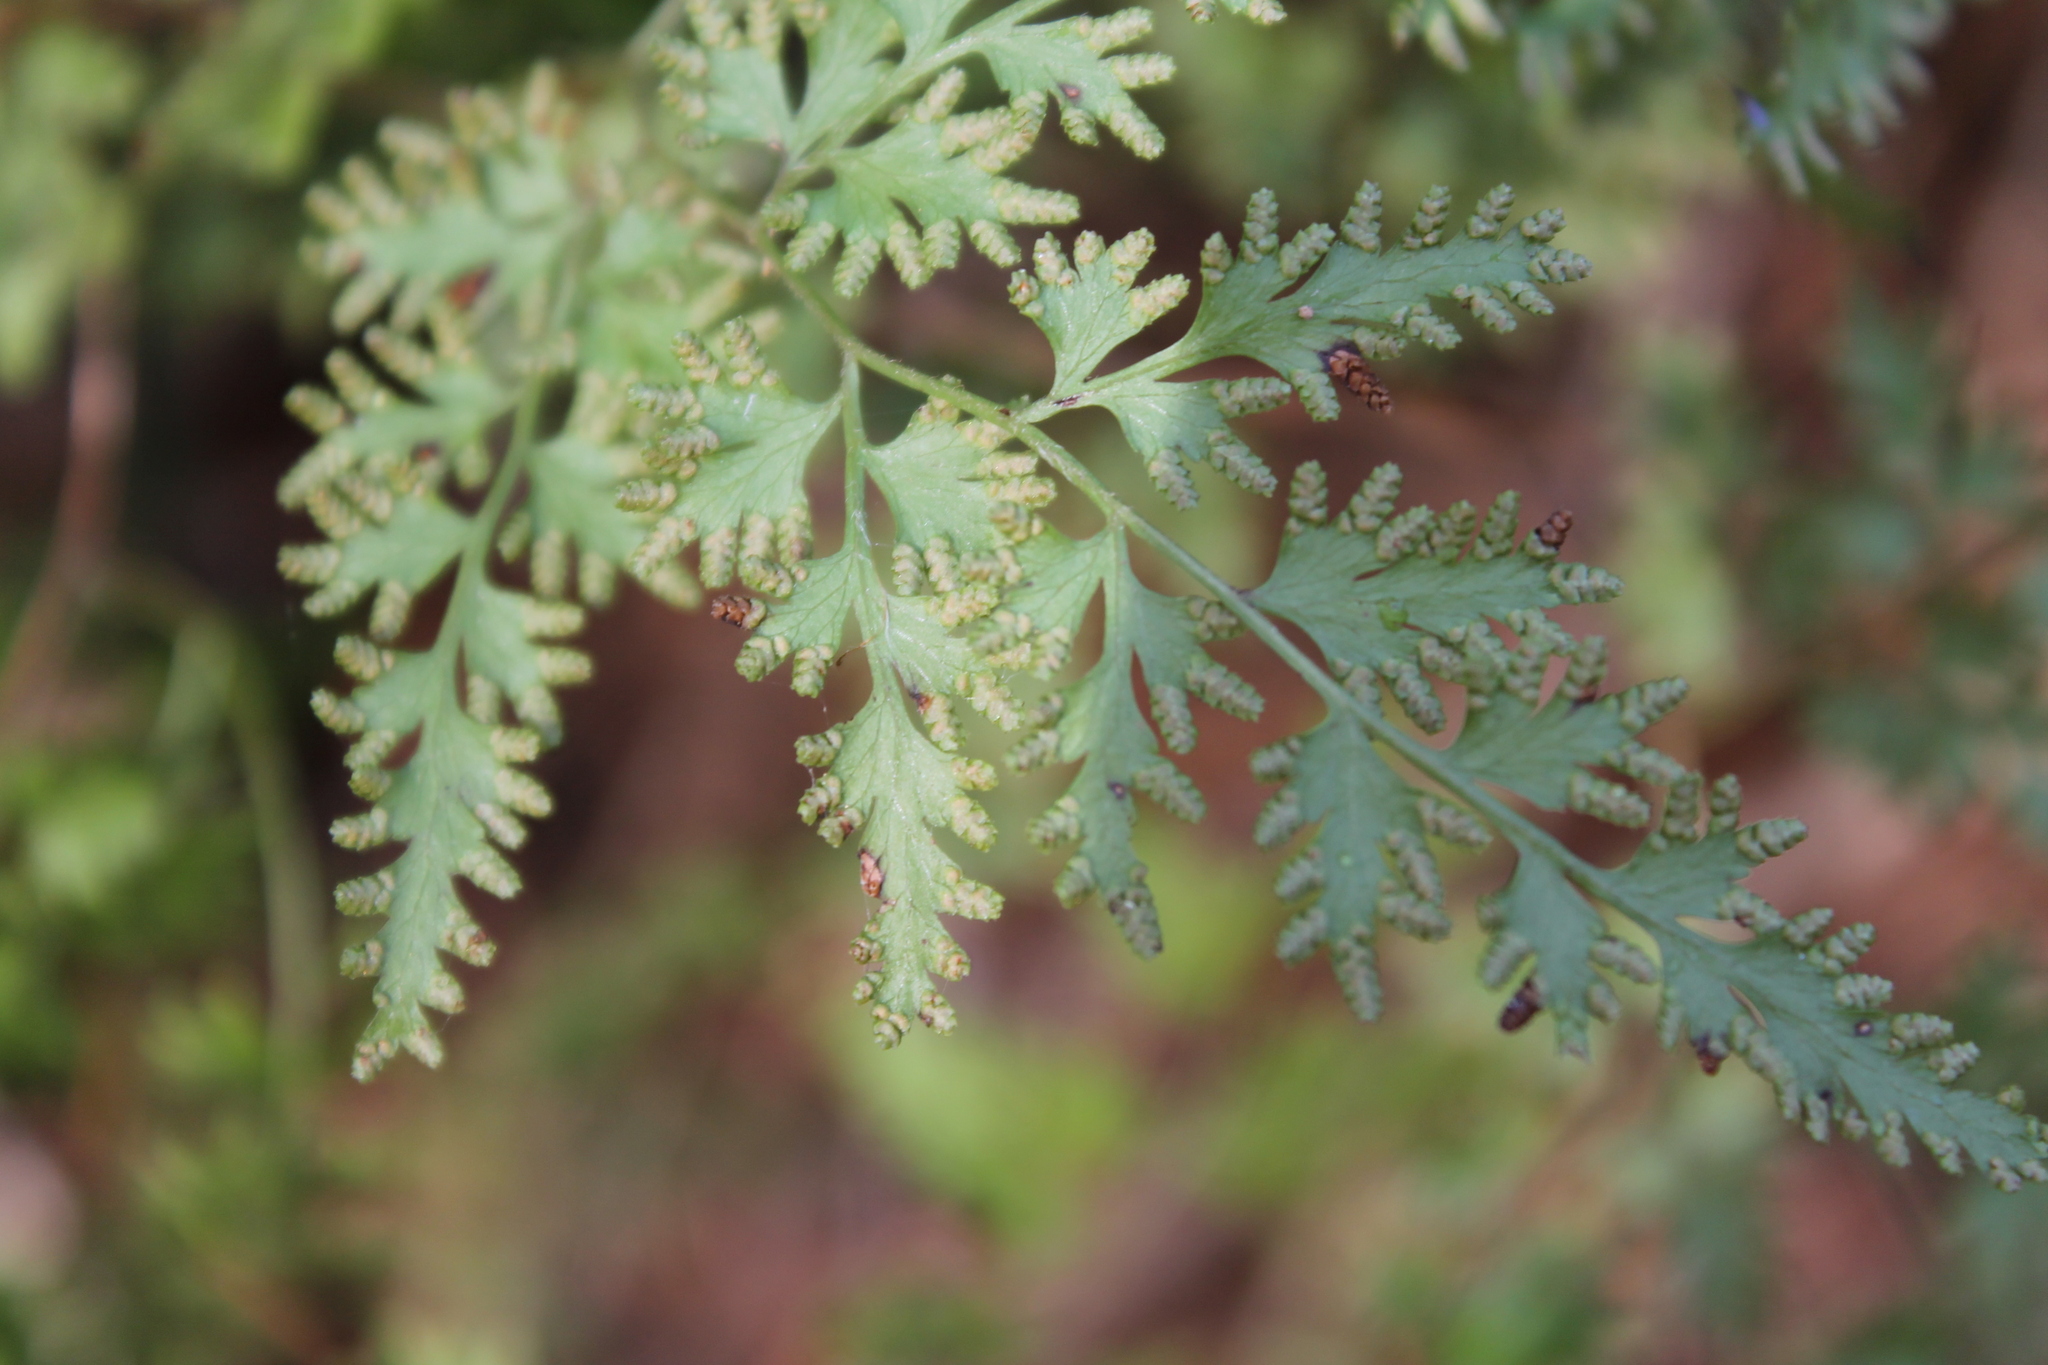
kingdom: Plantae
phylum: Tracheophyta
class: Polypodiopsida
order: Schizaeales
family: Lygodiaceae
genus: Lygodium
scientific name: Lygodium japonicum
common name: Japanese climbing fern
